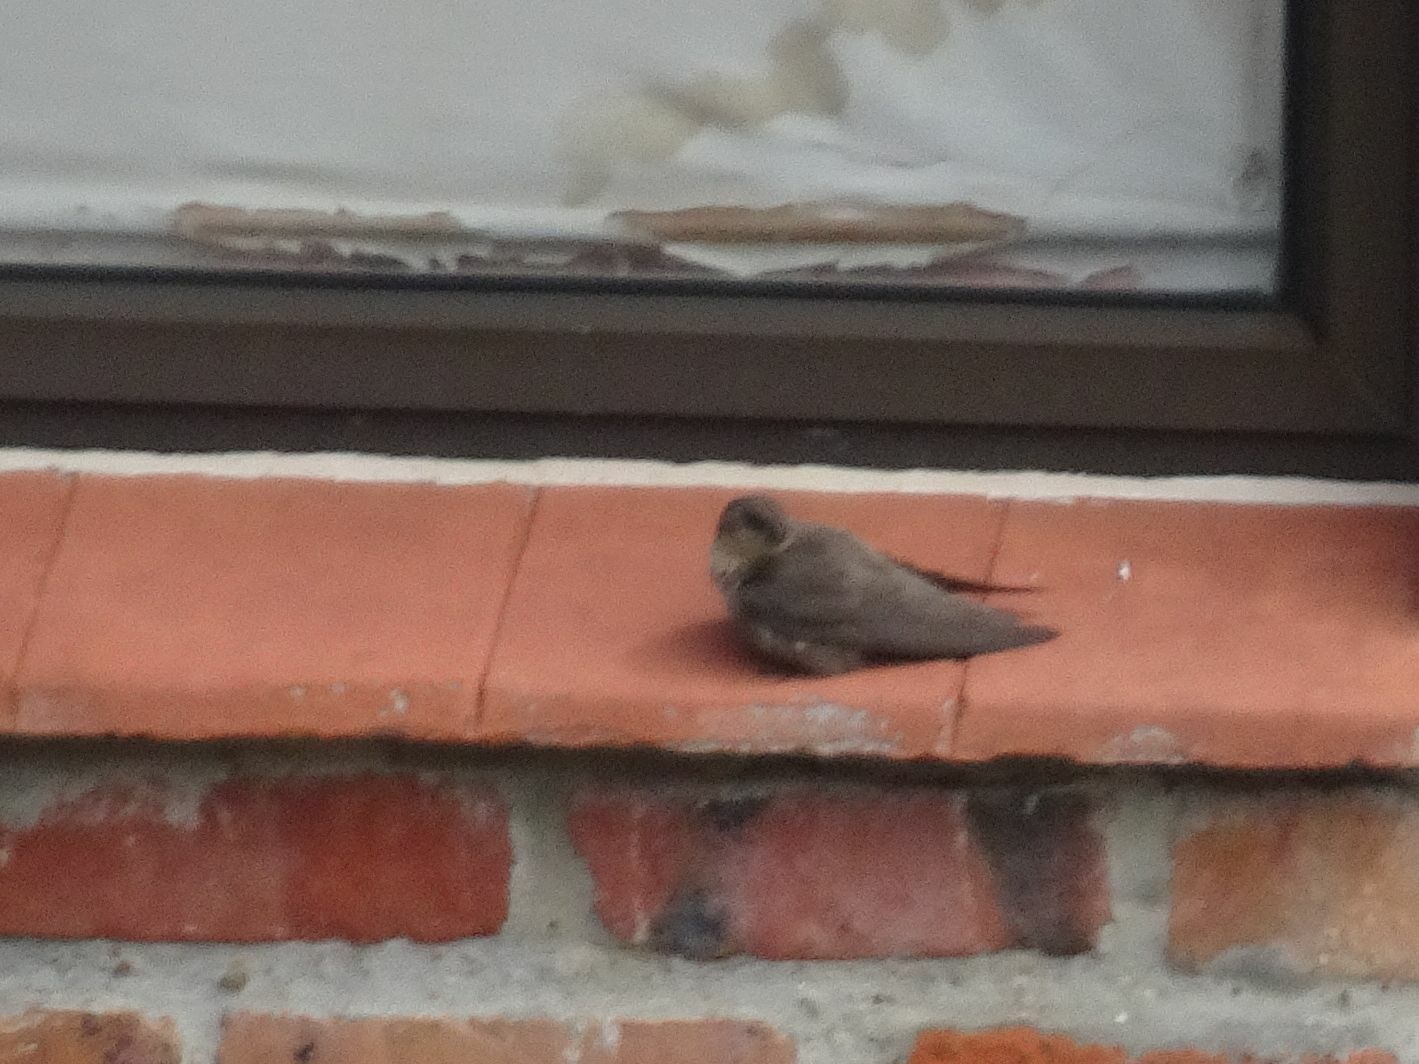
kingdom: Animalia
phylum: Chordata
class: Aves
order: Passeriformes
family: Hirundinidae
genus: Ptyonoprogne
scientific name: Ptyonoprogne fuligula
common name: Rock martin
